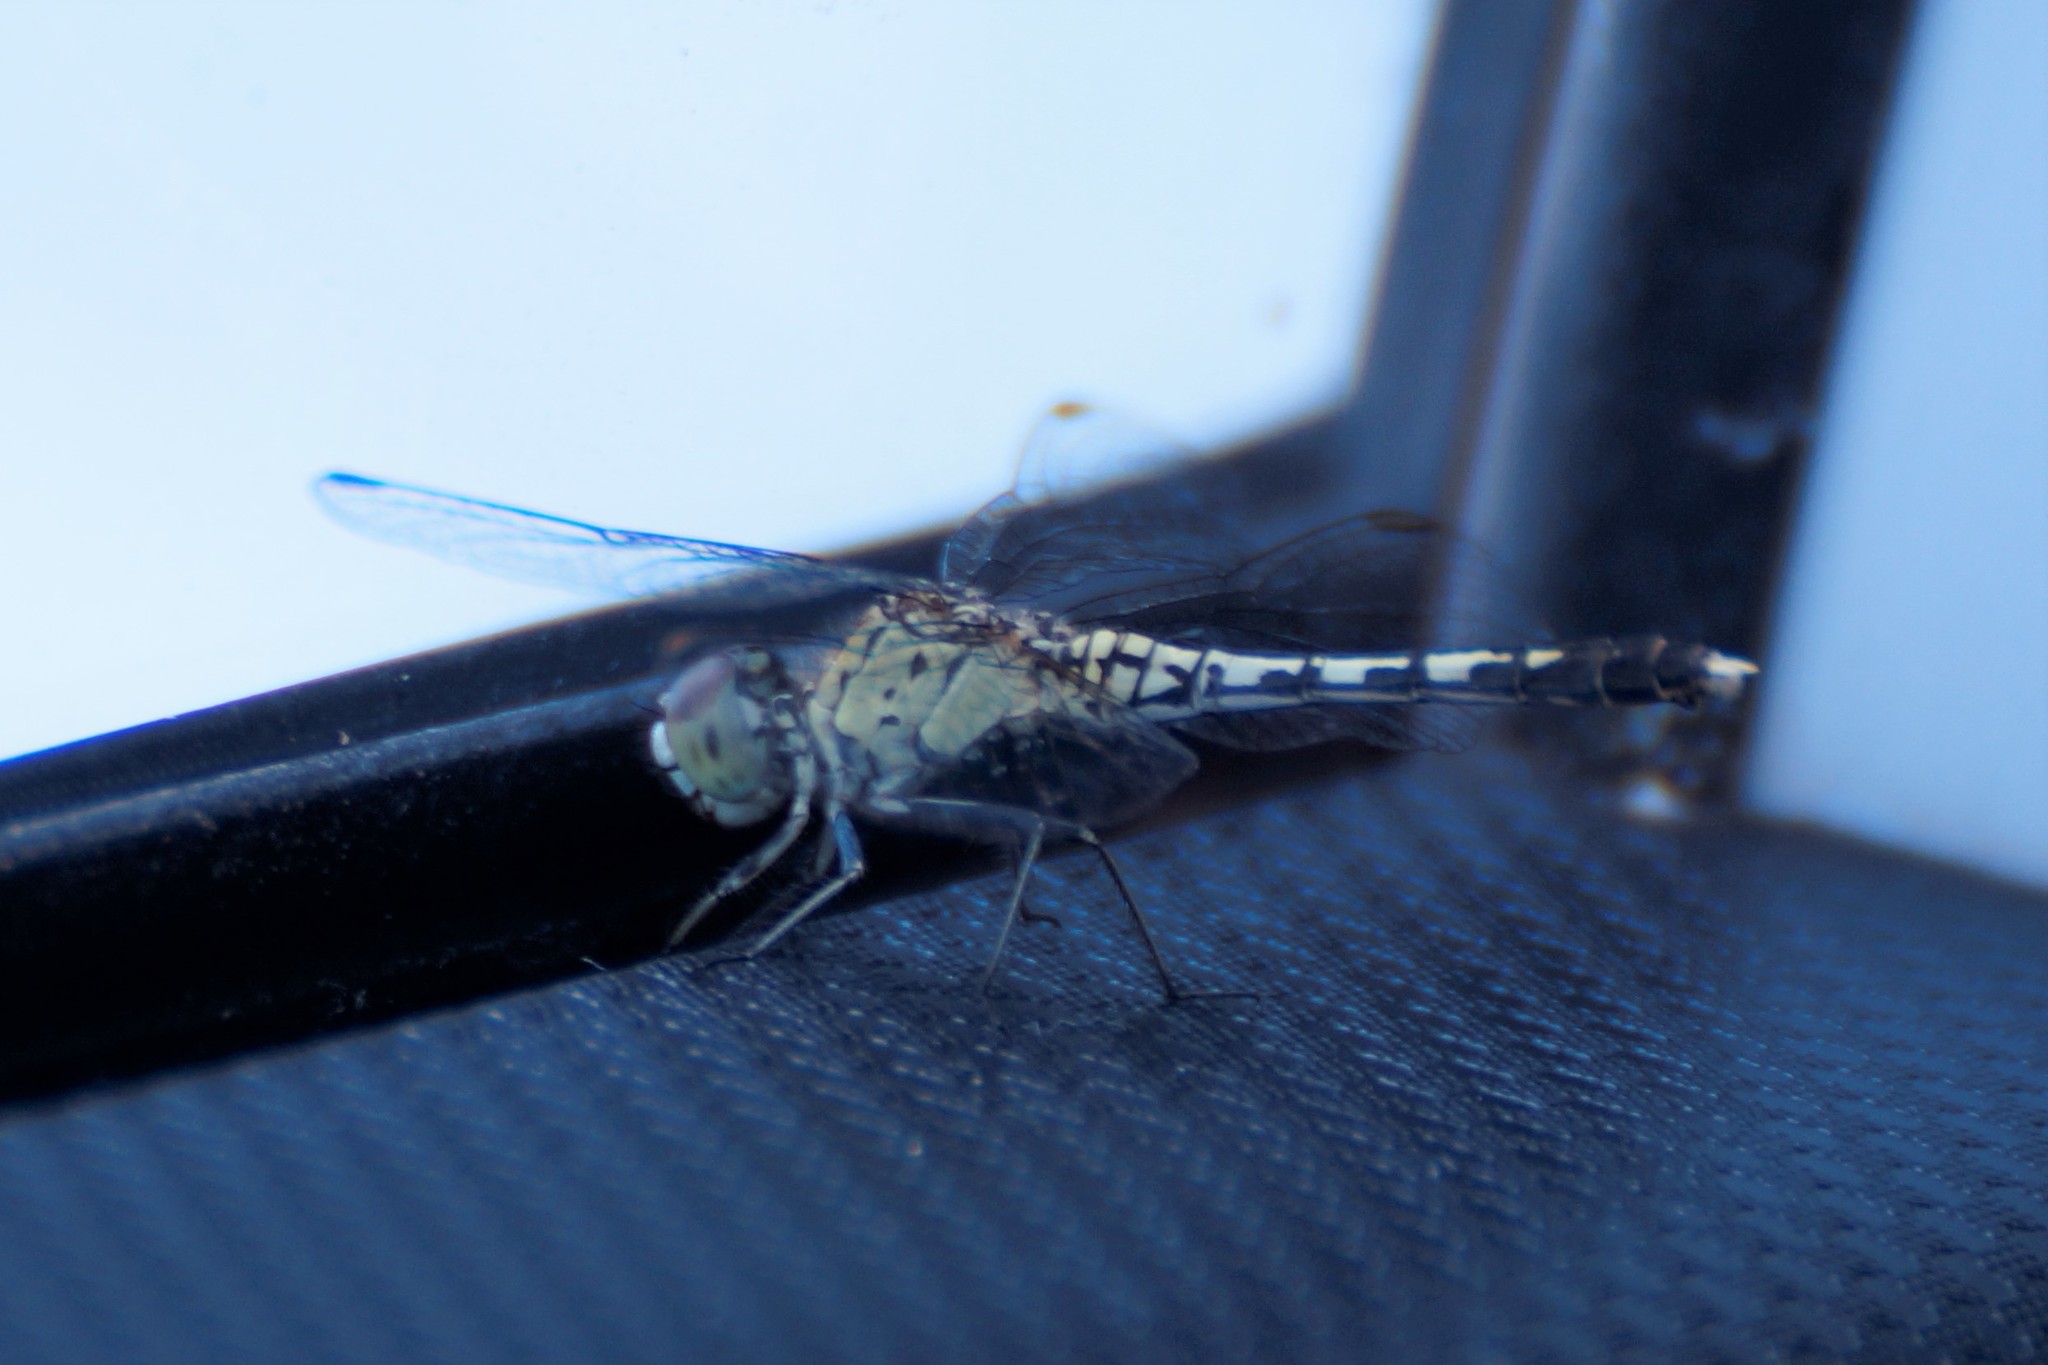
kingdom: Animalia
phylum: Arthropoda
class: Insecta
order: Odonata
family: Libellulidae
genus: Diplacodes
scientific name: Diplacodes trivialis
